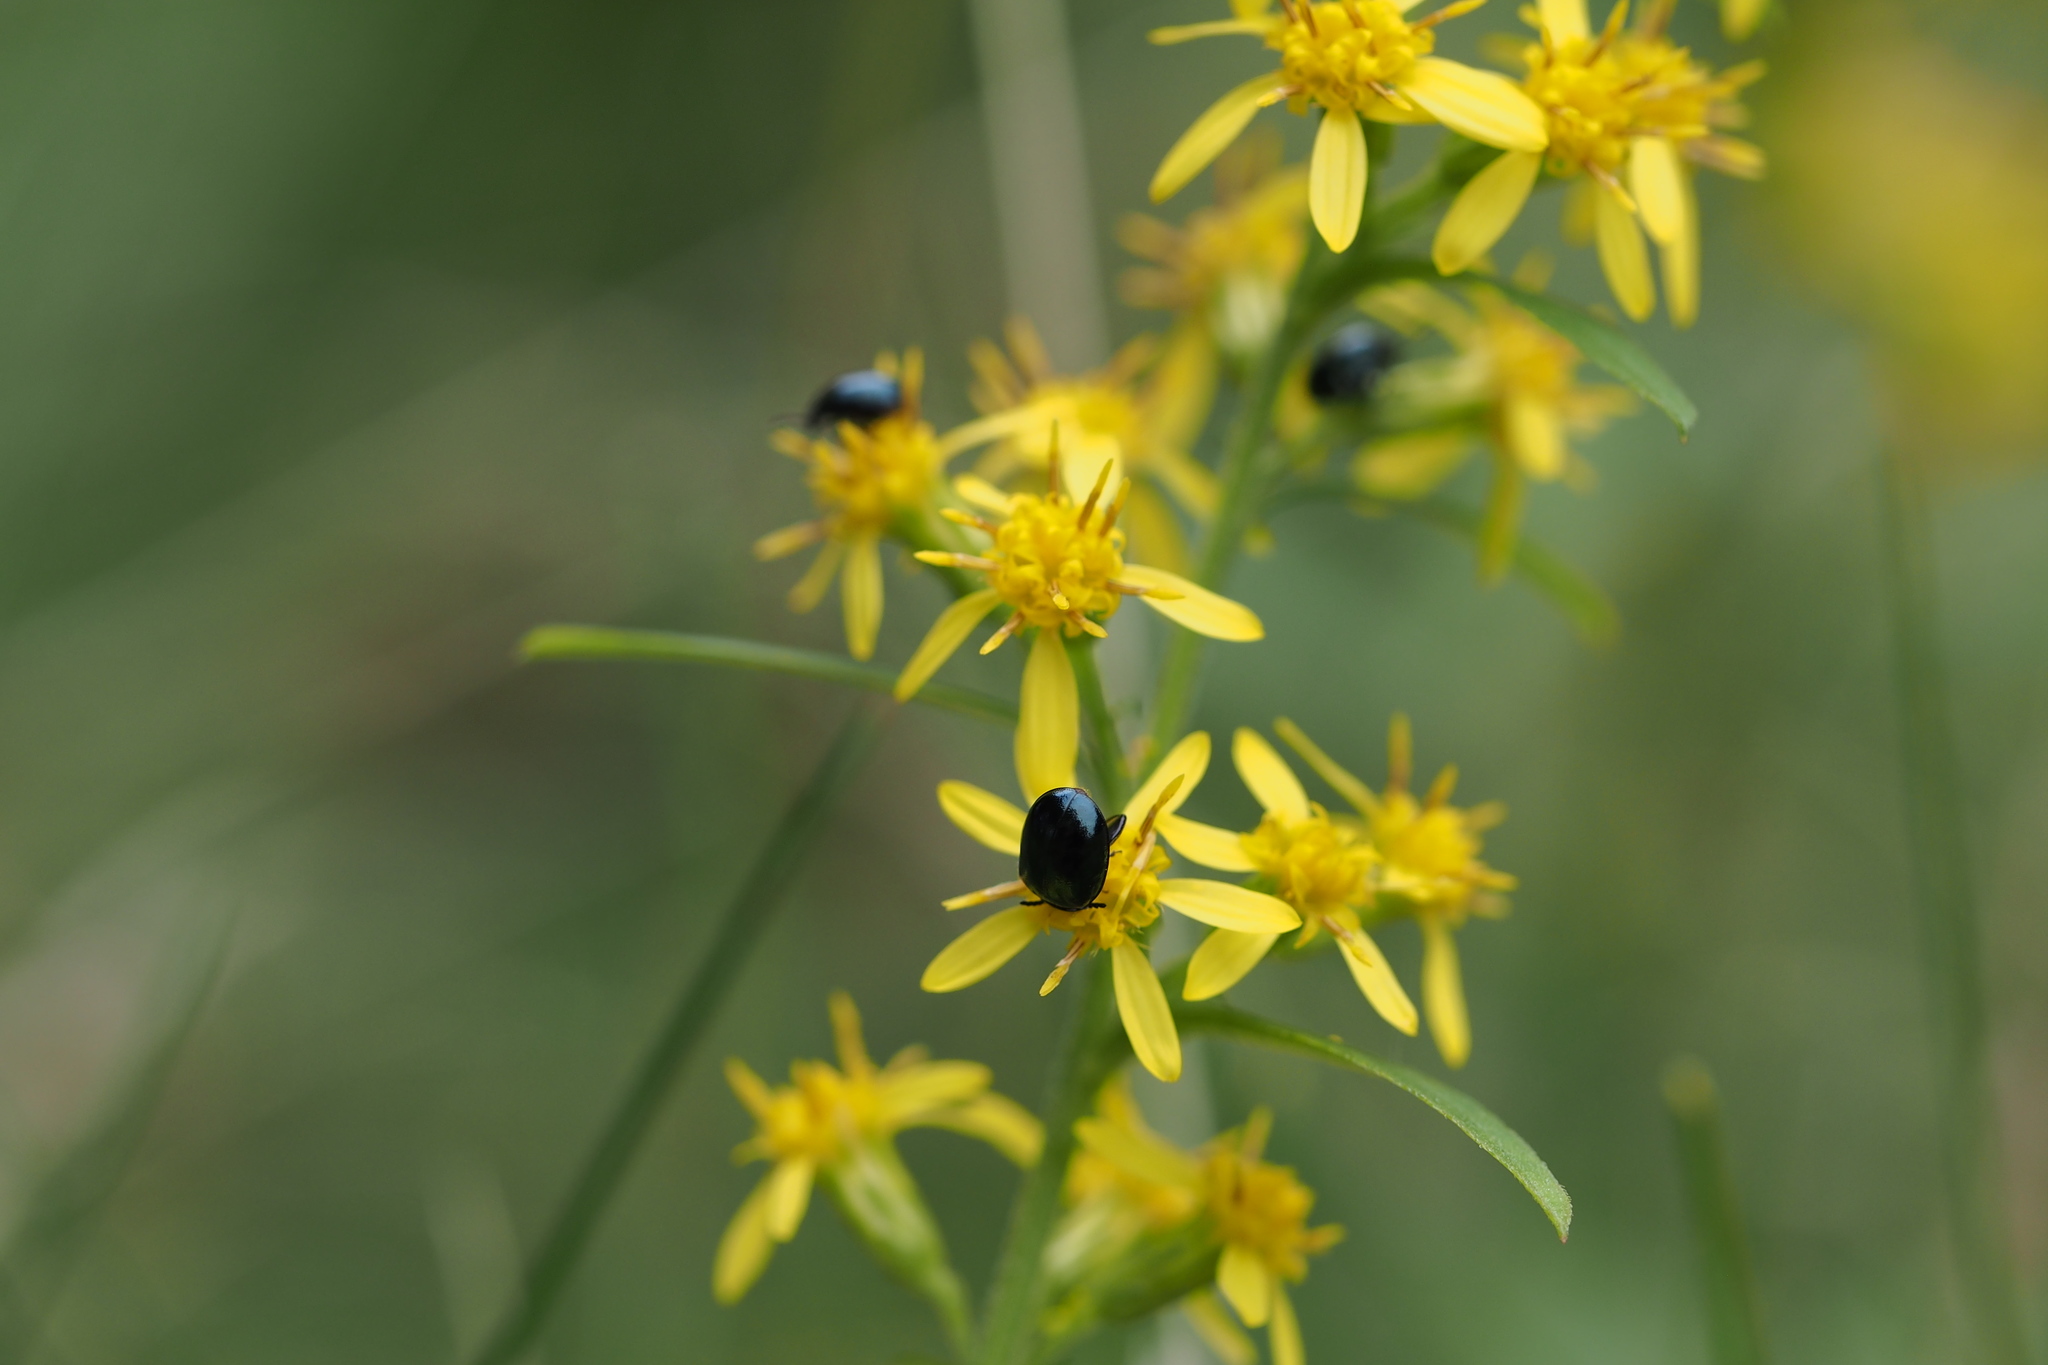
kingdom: Animalia
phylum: Arthropoda
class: Insecta
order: Coleoptera
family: Chrysomelidae
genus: Nonarthra
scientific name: Nonarthra
